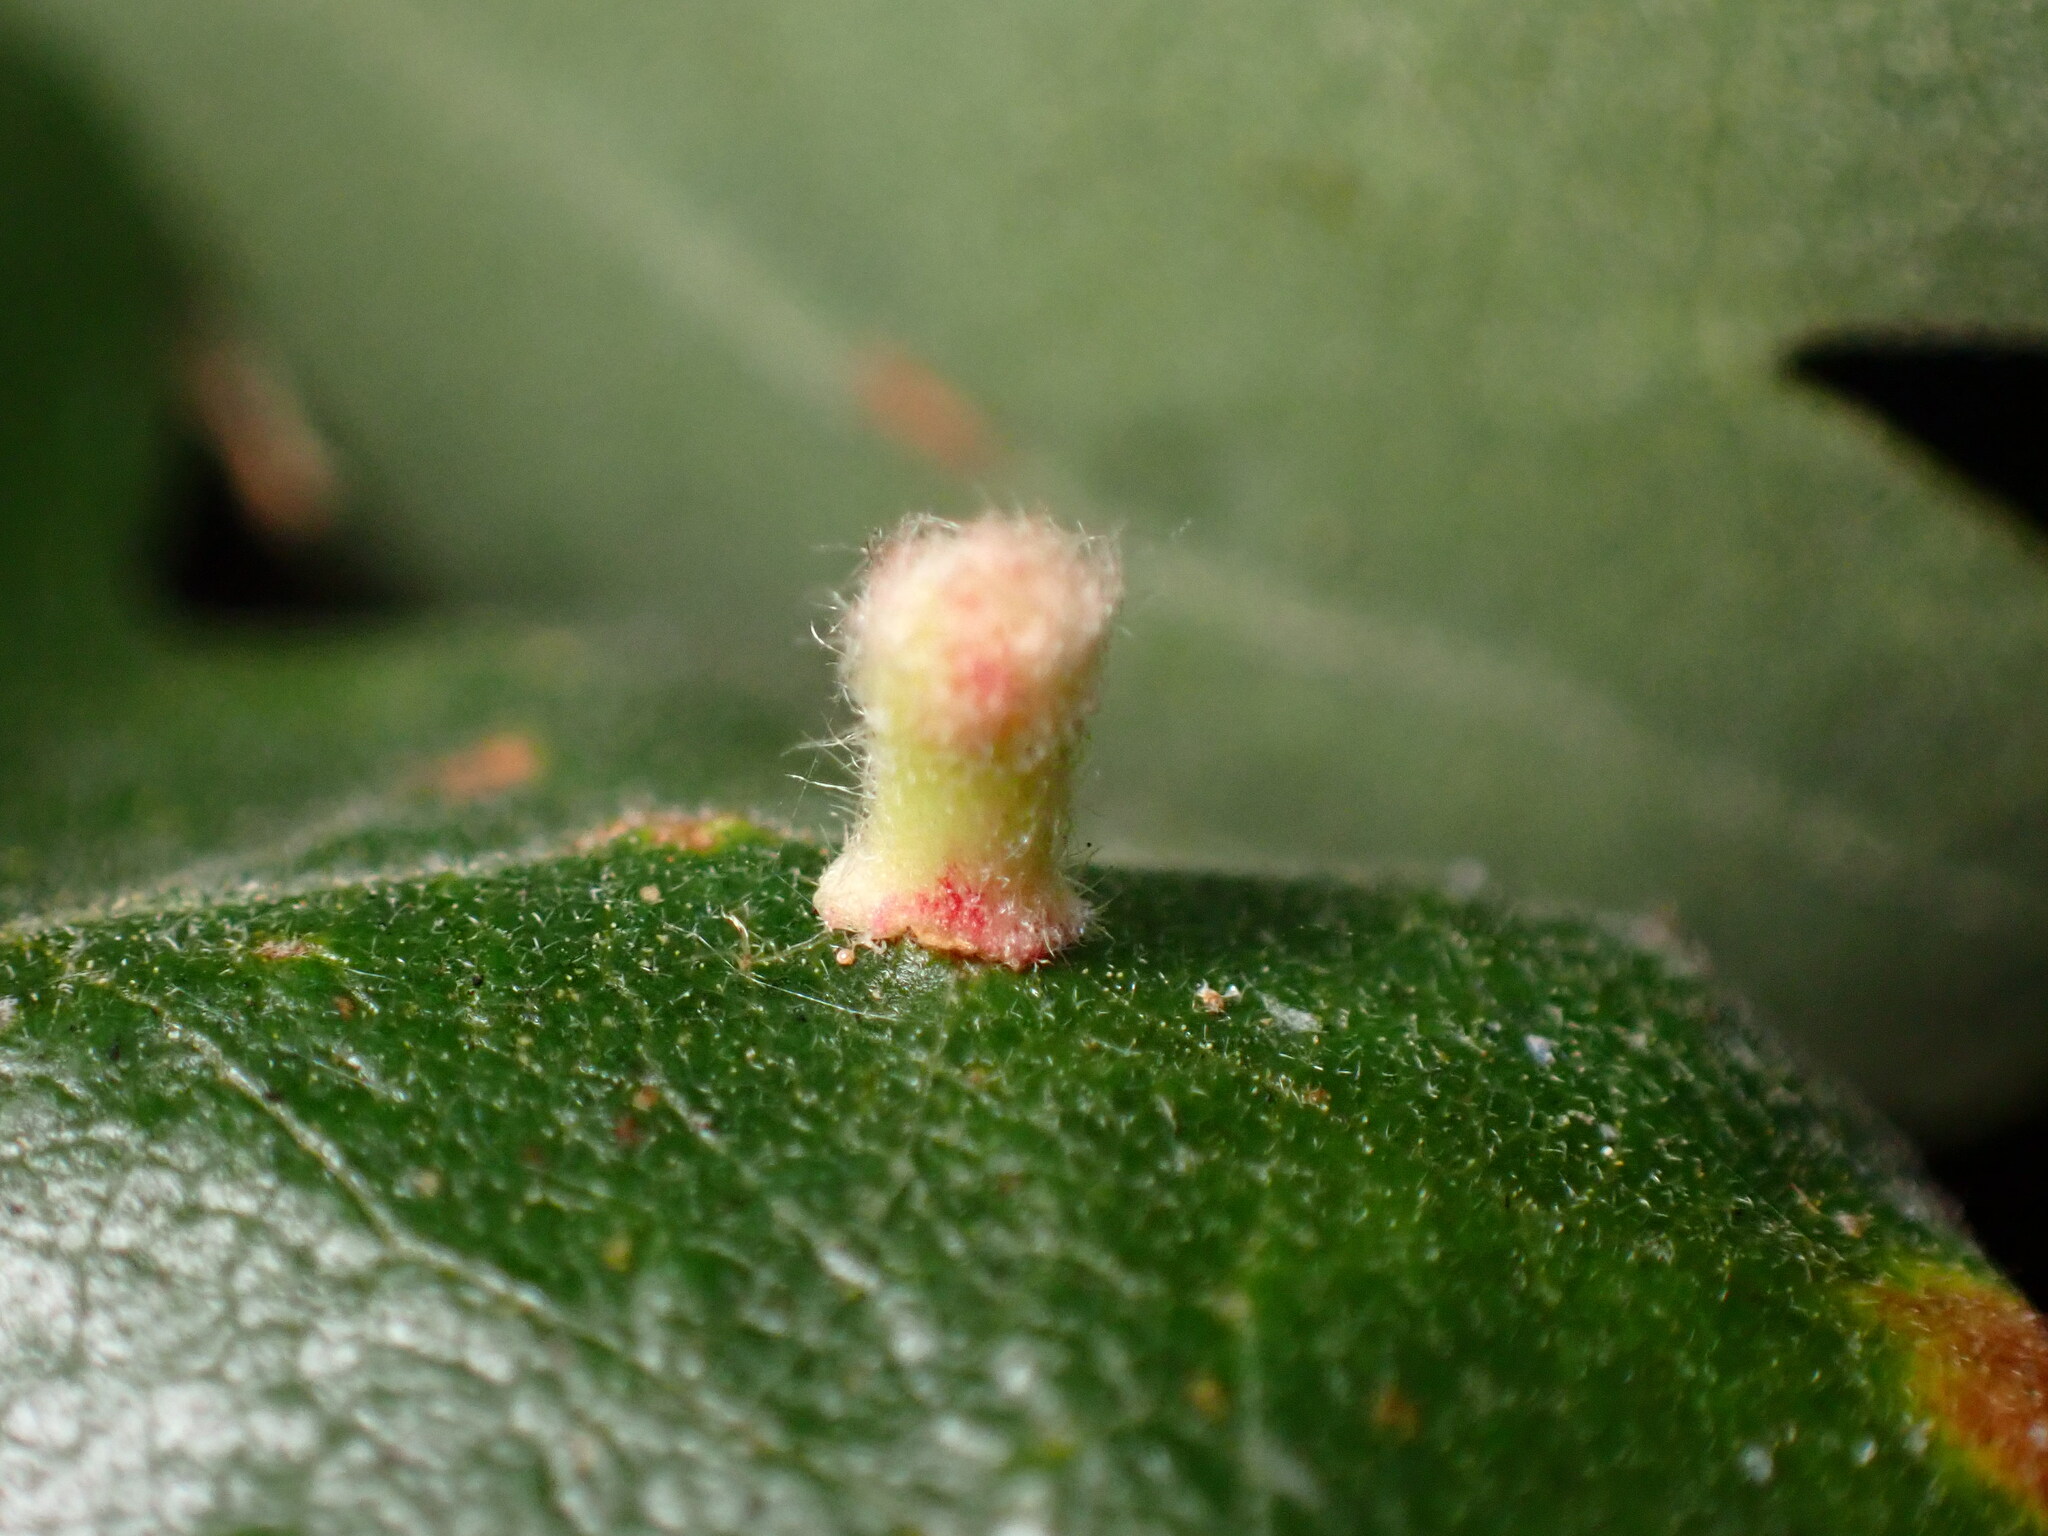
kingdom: Animalia
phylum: Arthropoda
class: Insecta
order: Hymenoptera
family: Cynipidae
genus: Atrusca
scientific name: Atrusca
